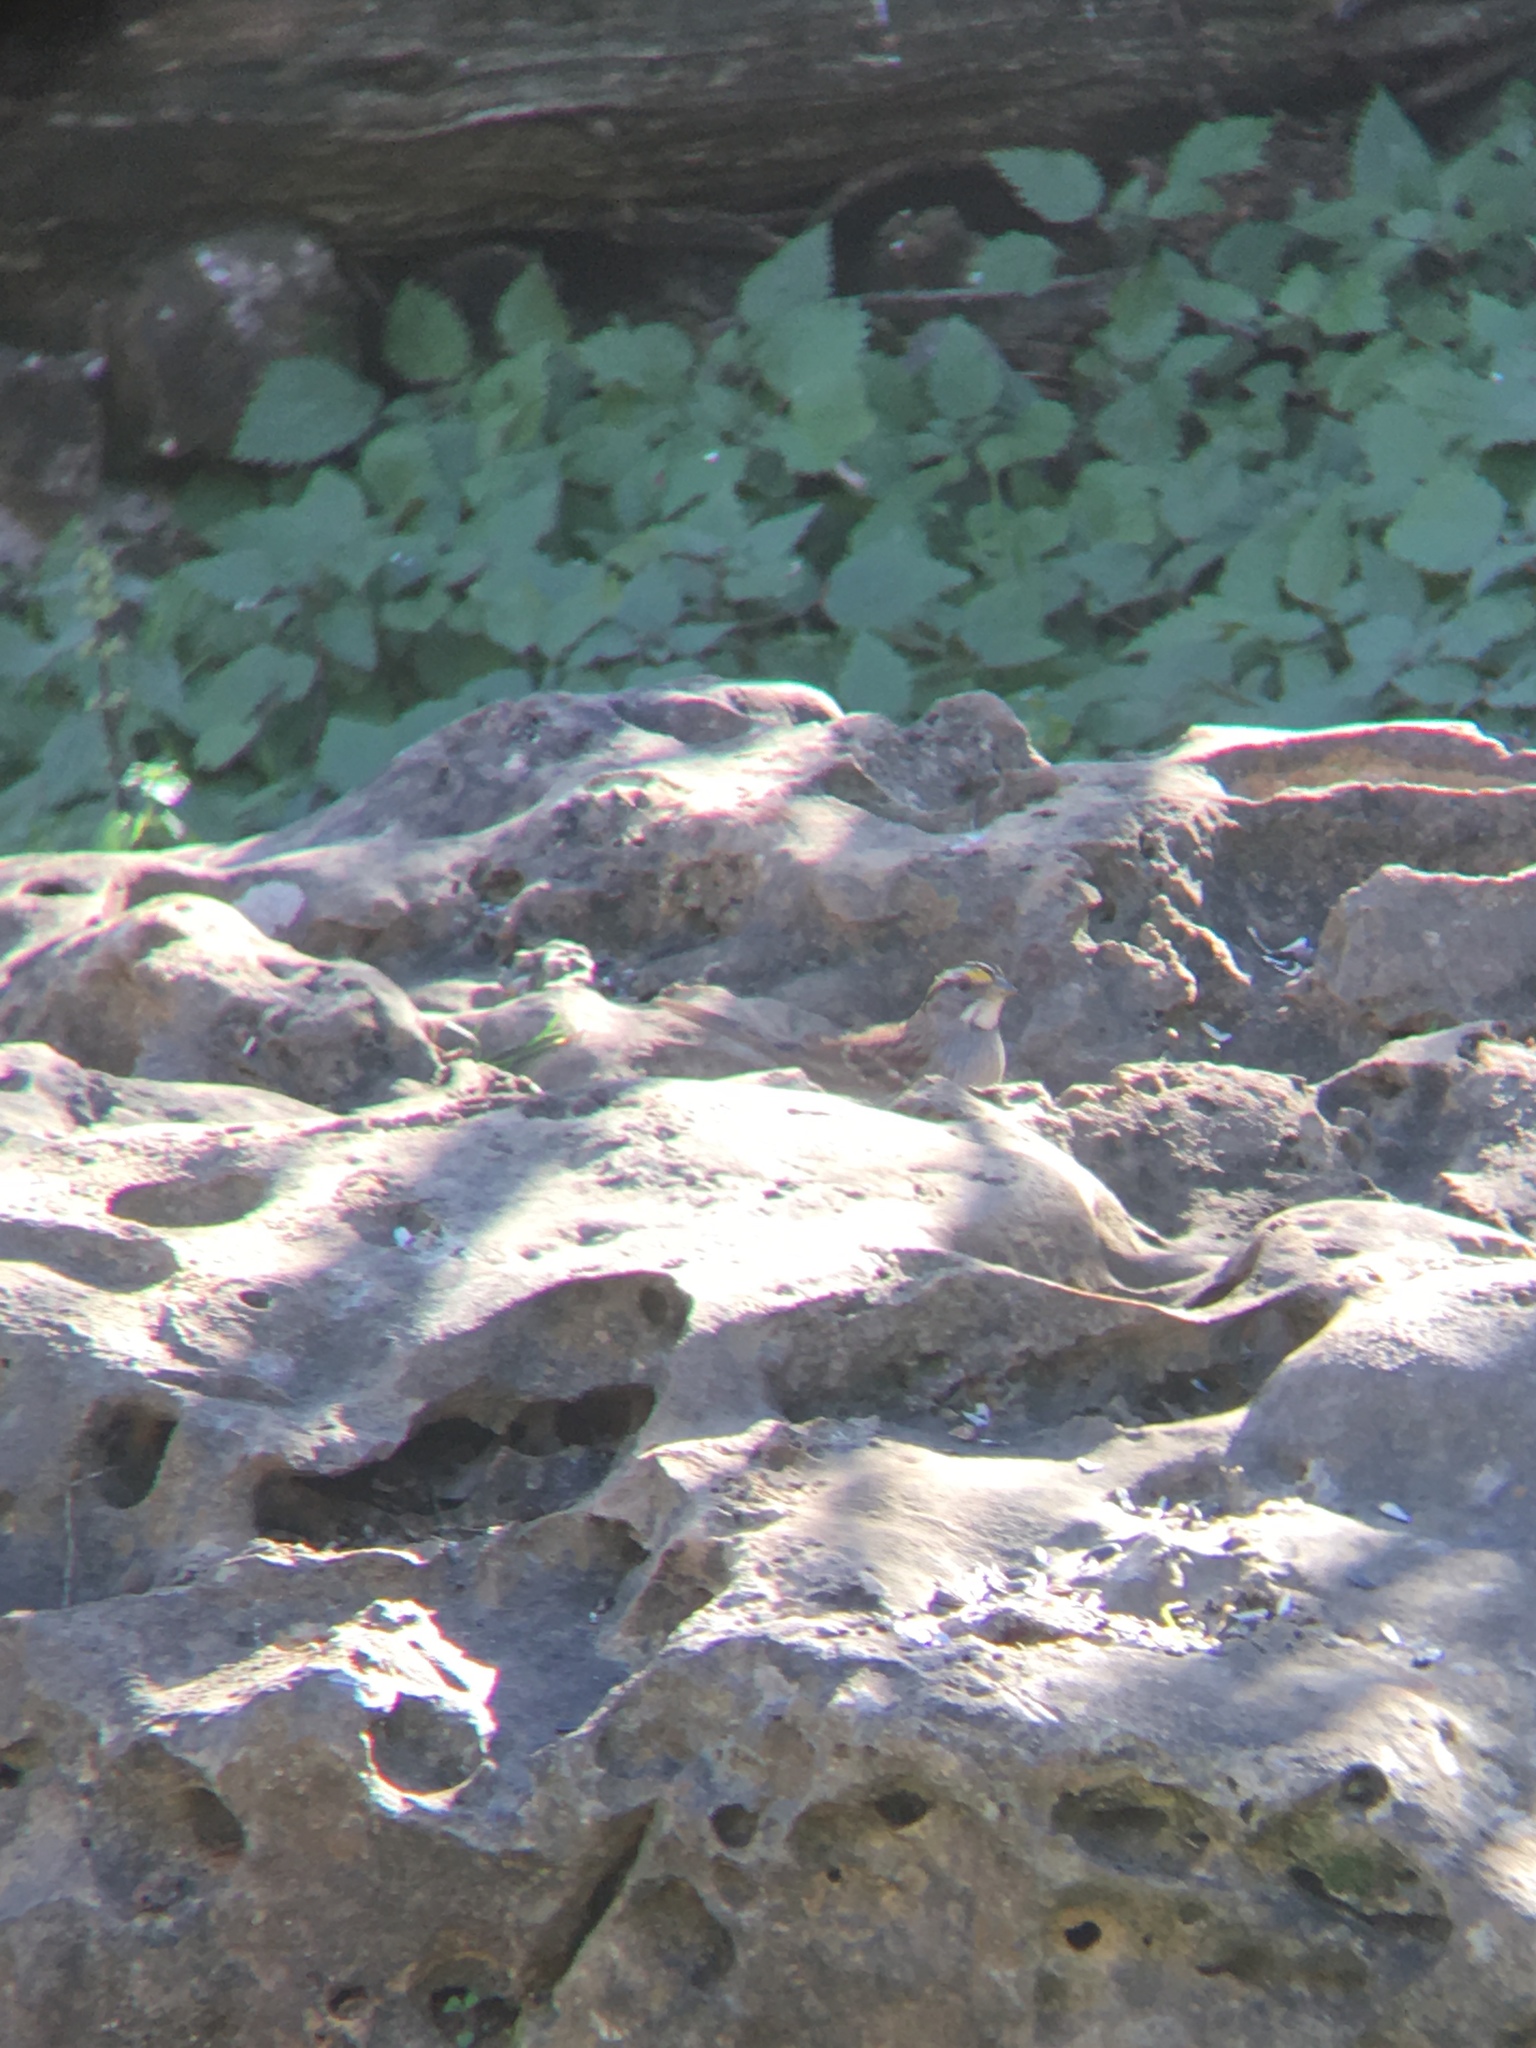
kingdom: Animalia
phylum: Chordata
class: Aves
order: Passeriformes
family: Passerellidae
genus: Zonotrichia
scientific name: Zonotrichia albicollis
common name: White-throated sparrow
